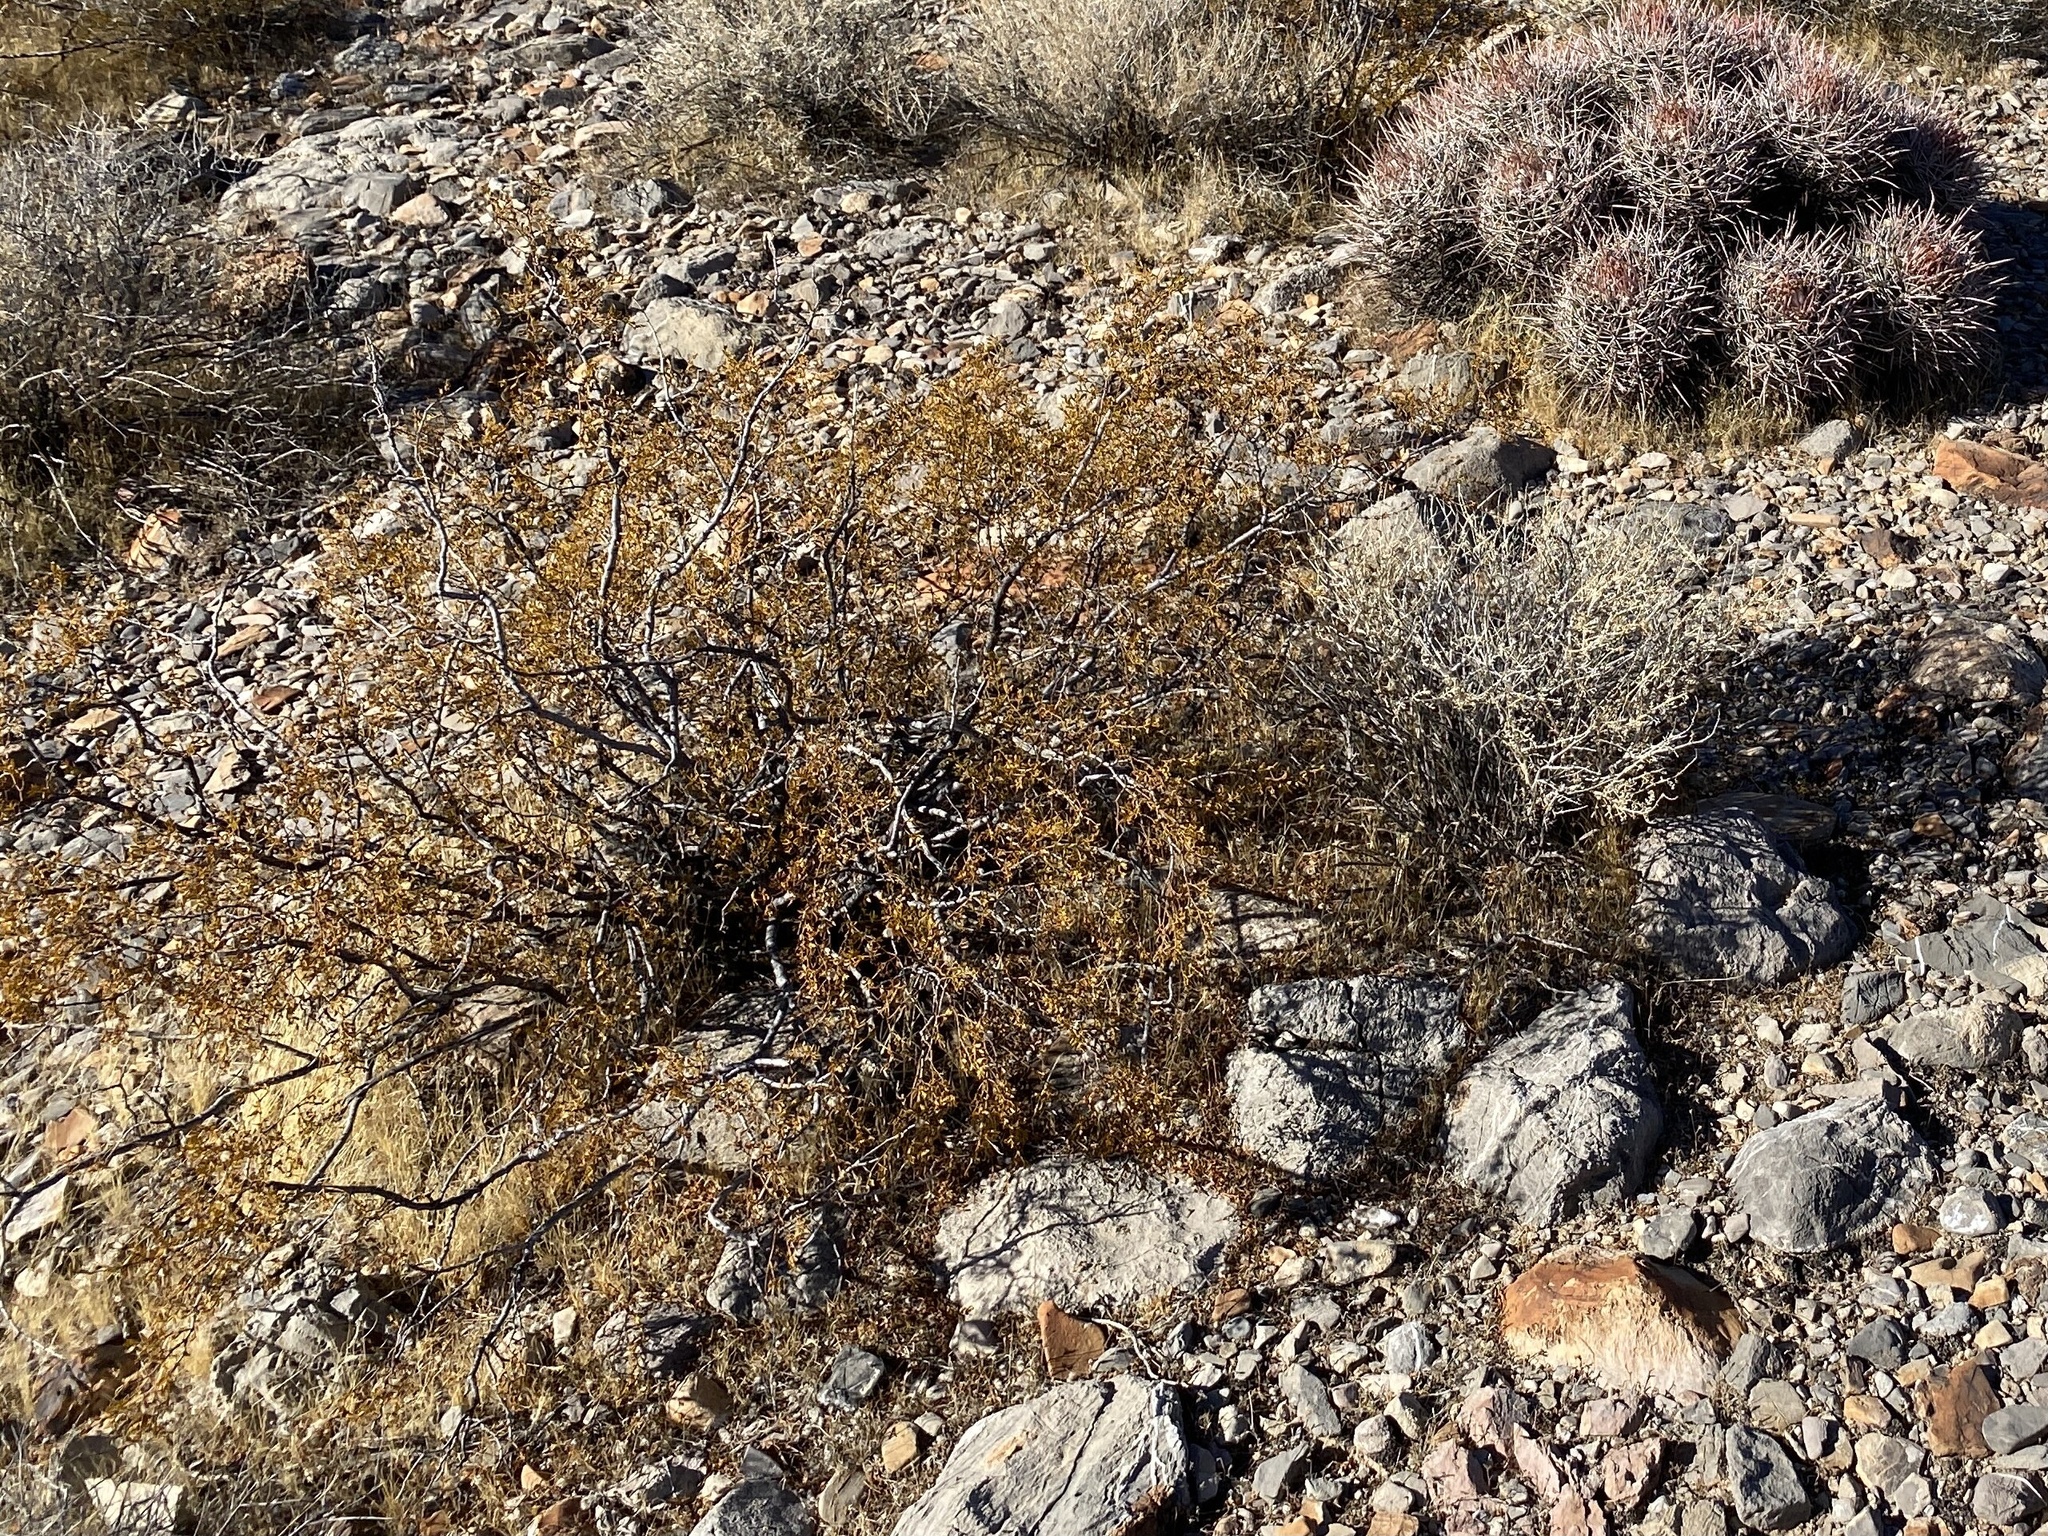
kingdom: Plantae
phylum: Tracheophyta
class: Magnoliopsida
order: Zygophyllales
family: Zygophyllaceae
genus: Larrea
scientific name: Larrea tridentata
